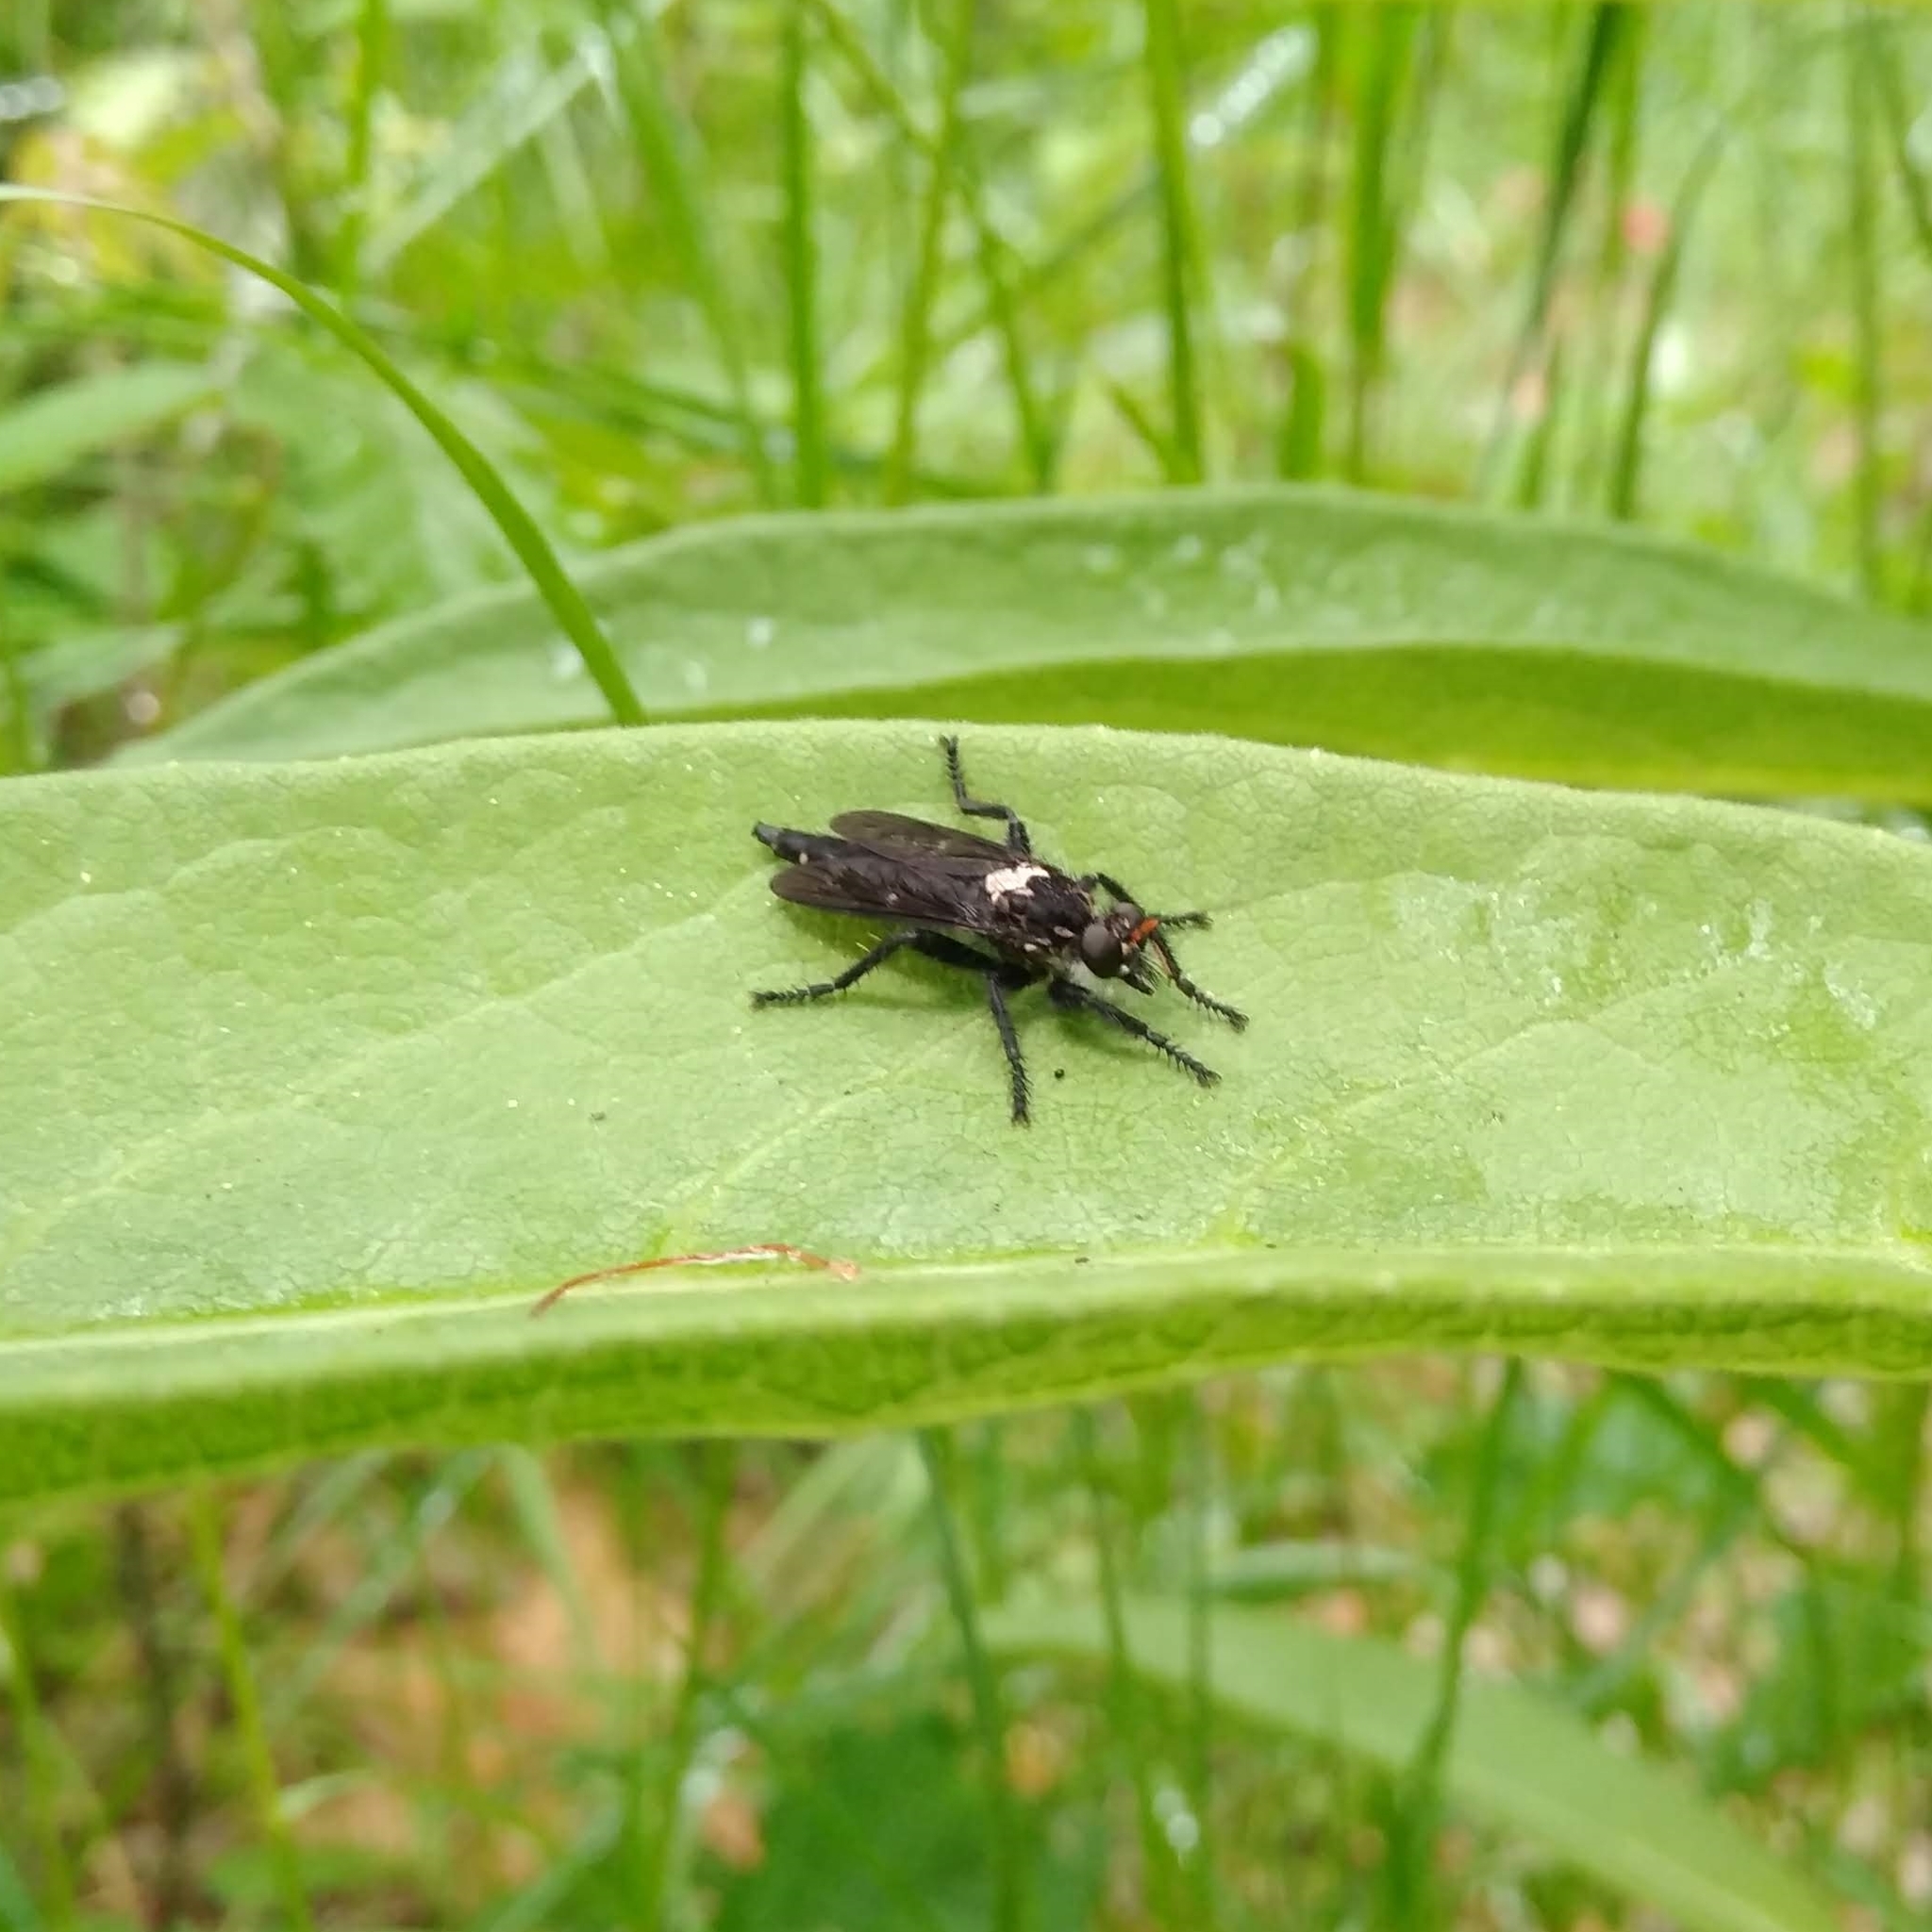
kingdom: Animalia
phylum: Arthropoda
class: Insecta
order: Diptera
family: Asilidae
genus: Pritchardia
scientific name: Pritchardia hirtipes
